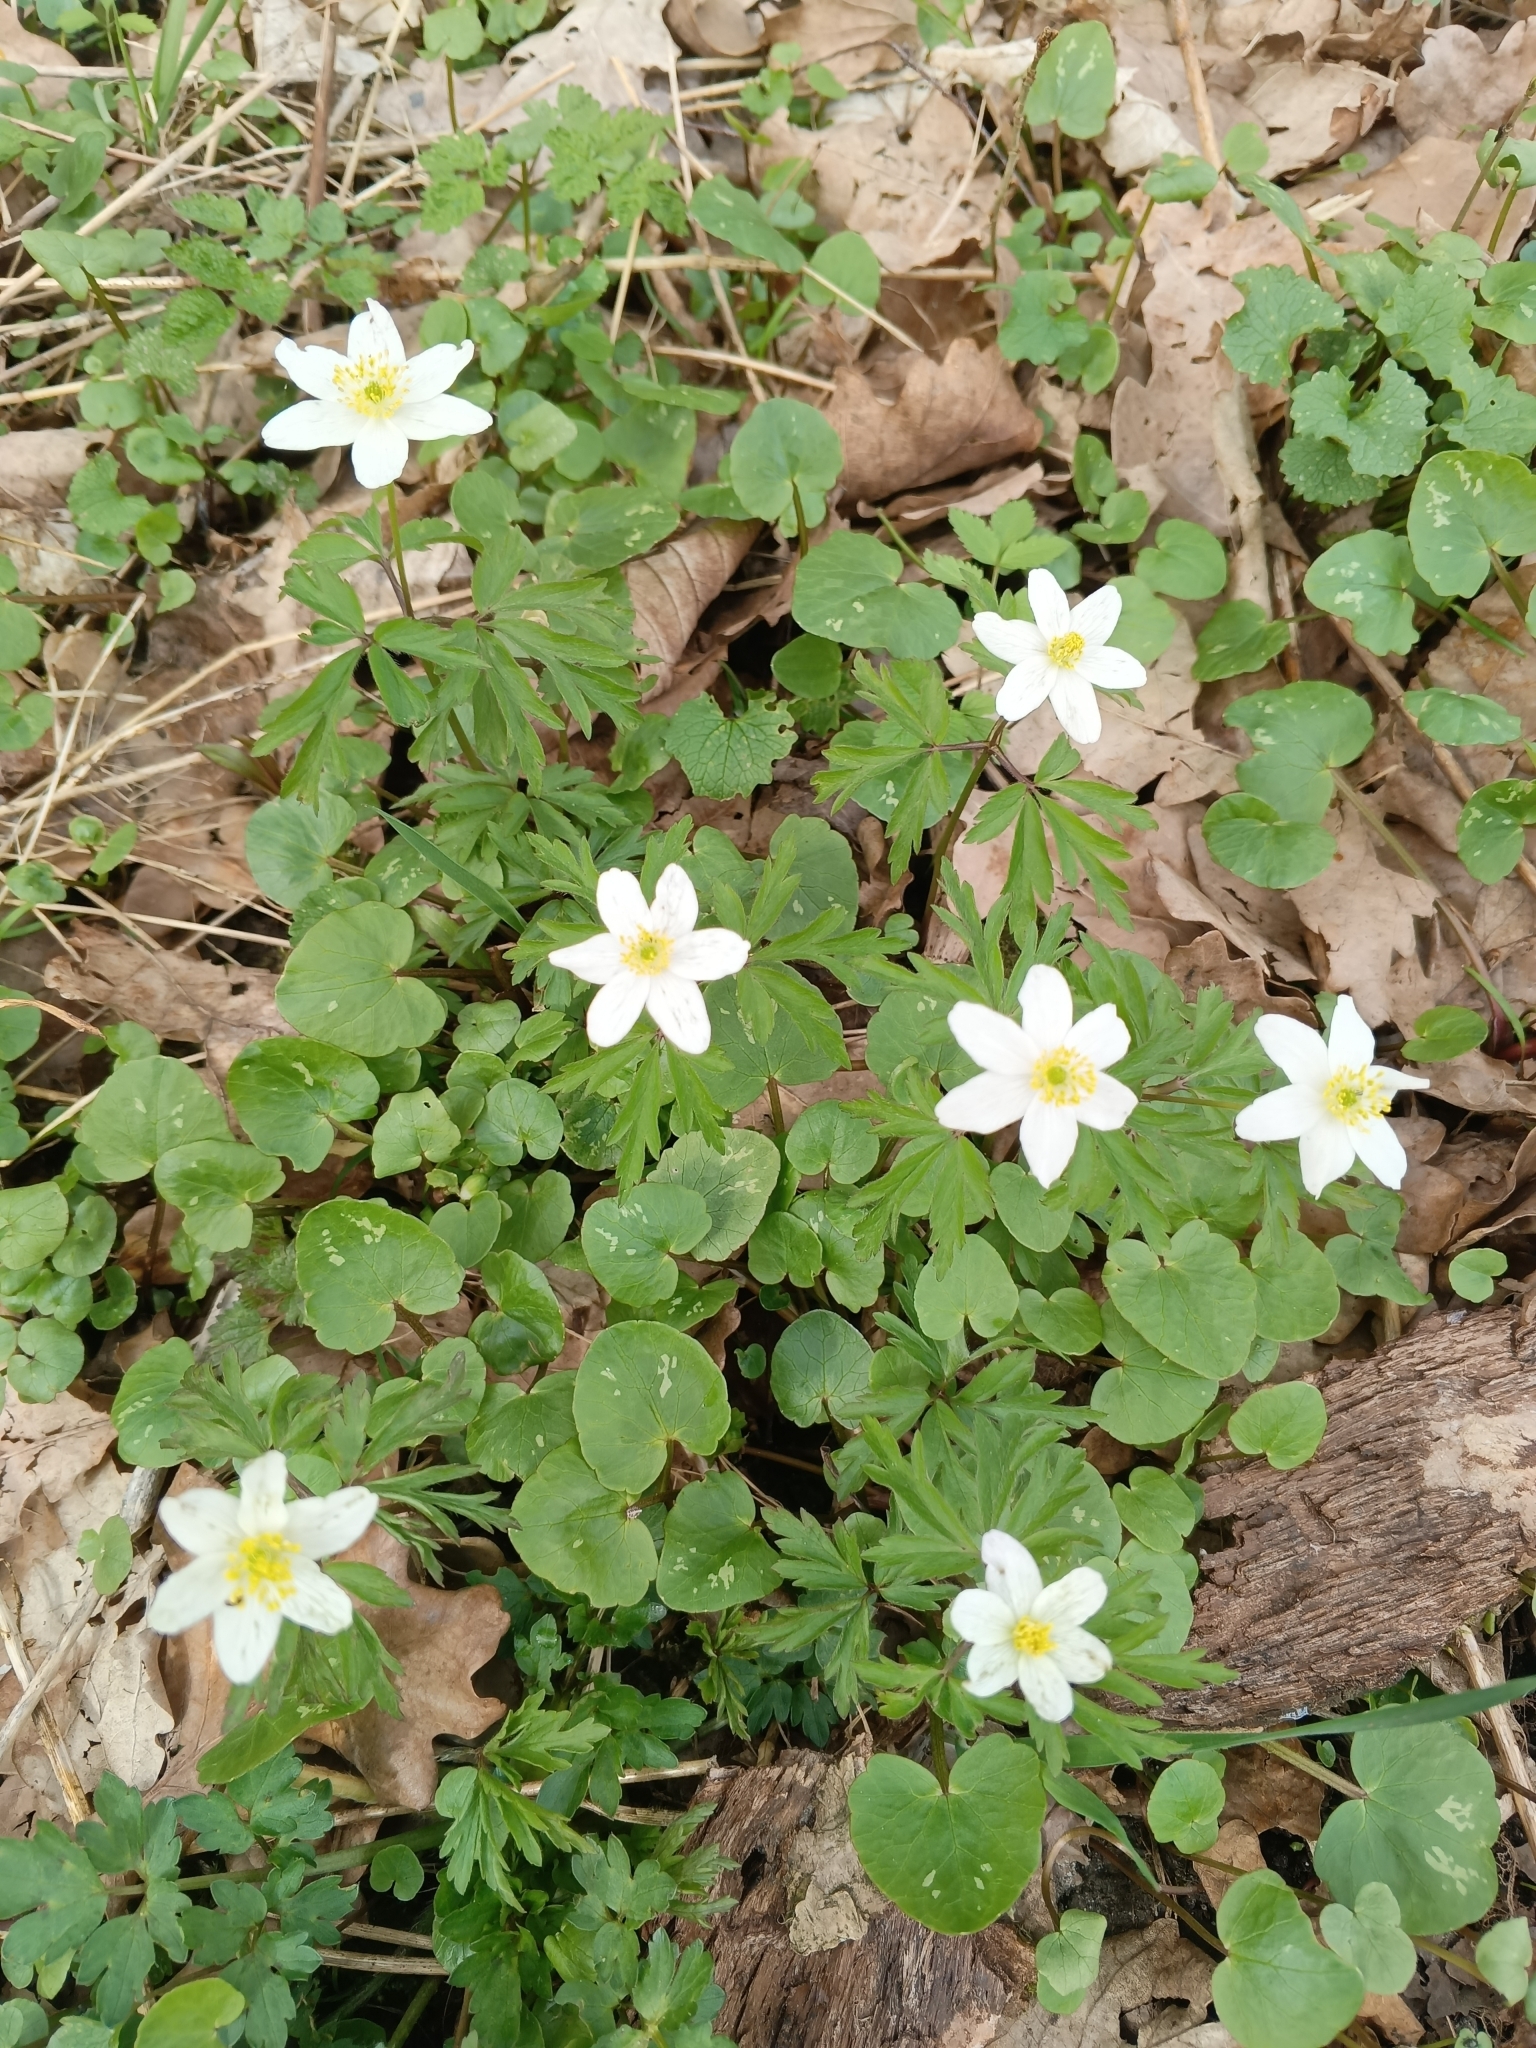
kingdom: Plantae
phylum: Tracheophyta
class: Magnoliopsida
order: Ranunculales
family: Ranunculaceae
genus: Anemone
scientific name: Anemone nemorosa
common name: Wood anemone
